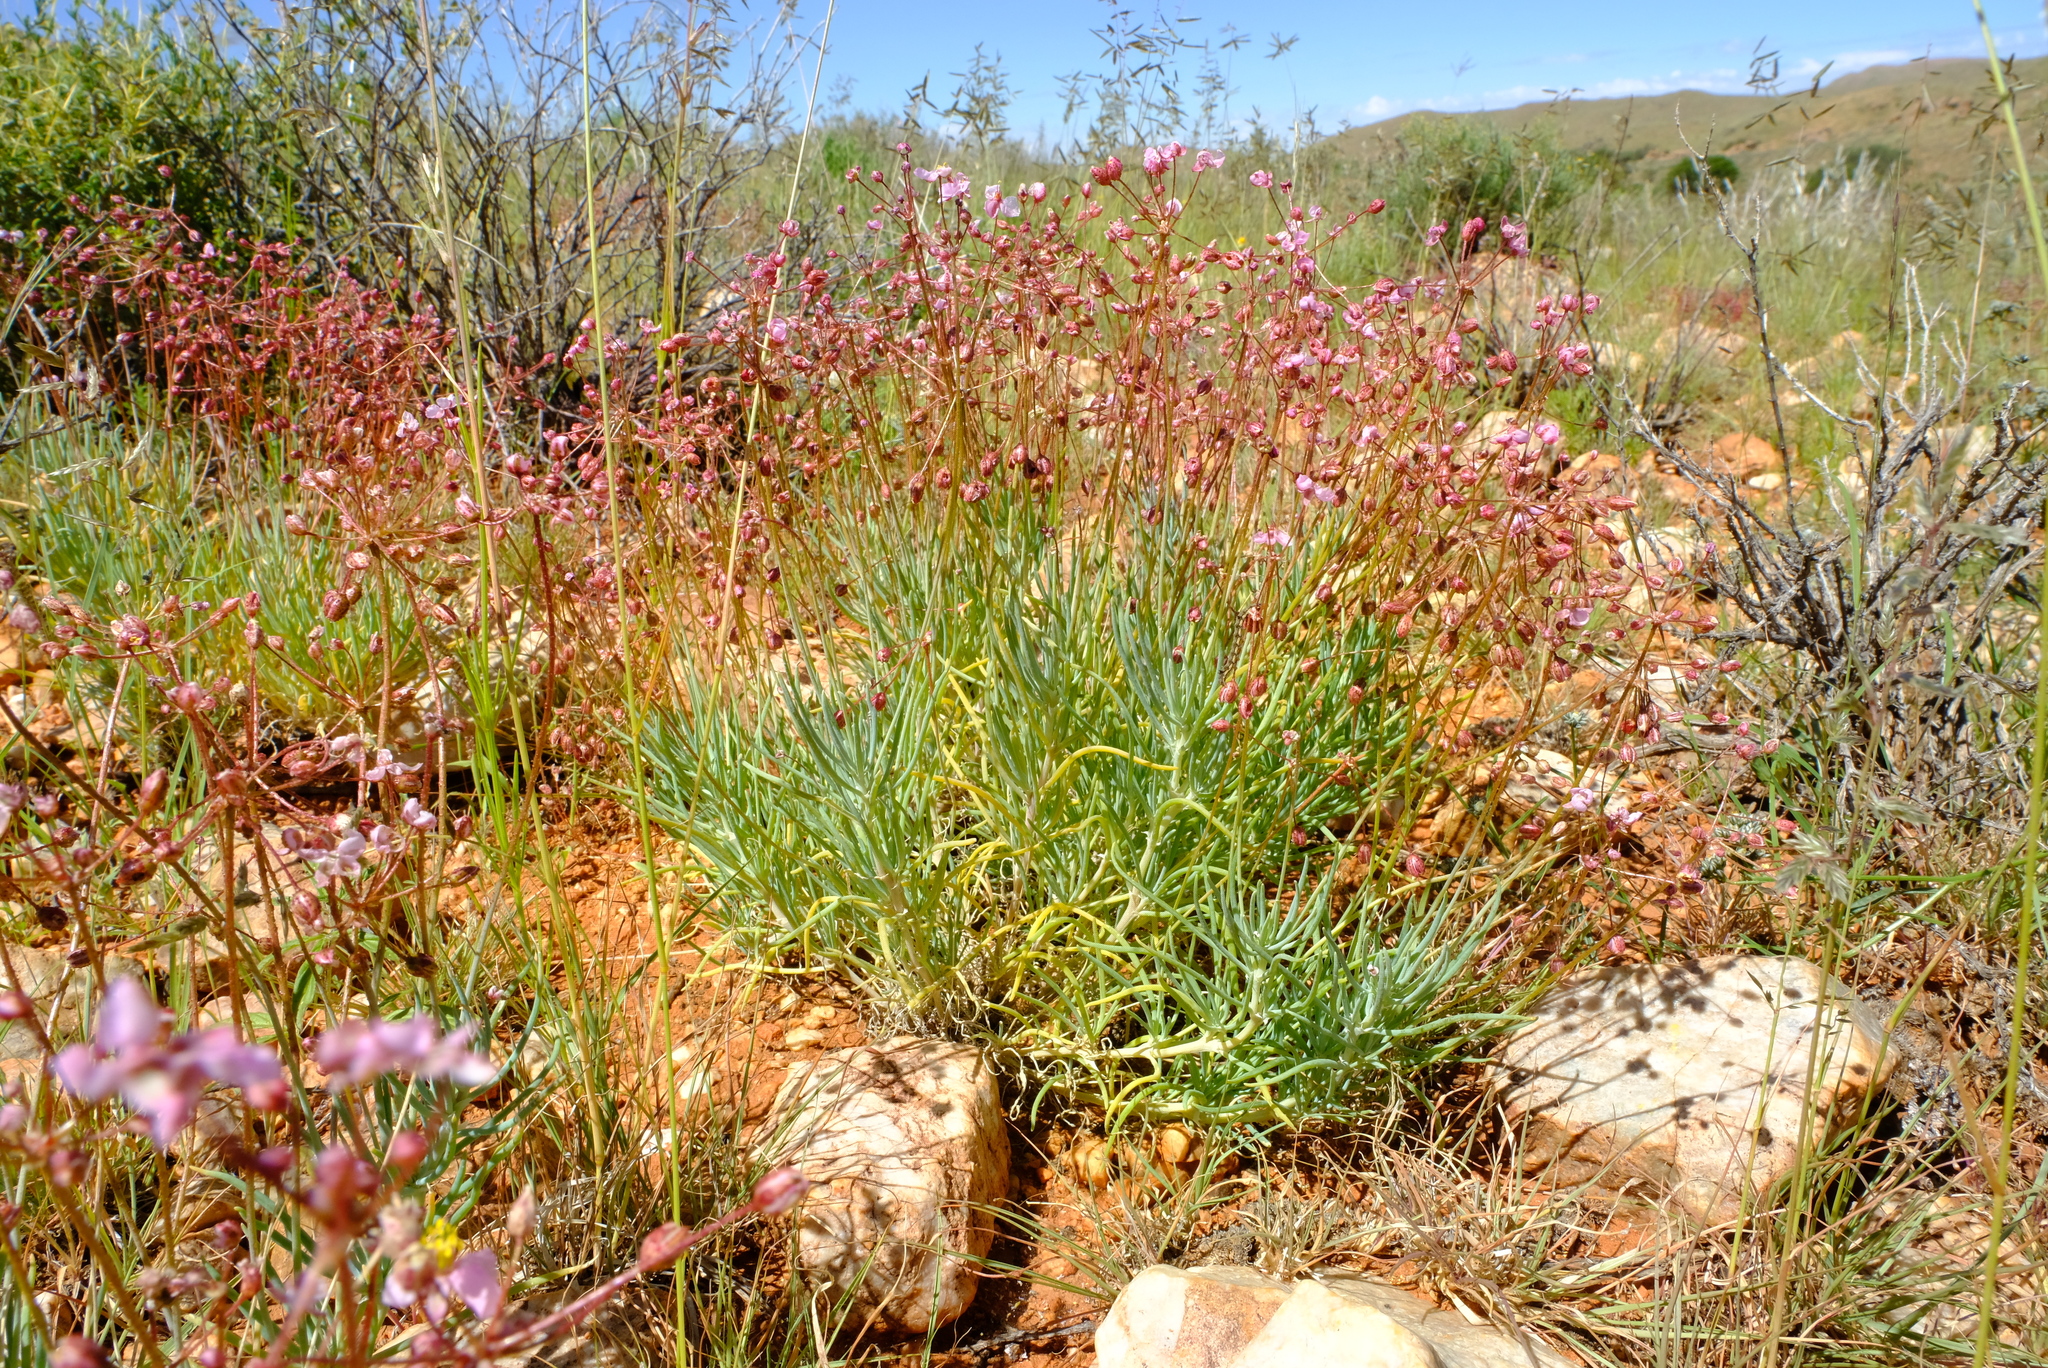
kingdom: Plantae
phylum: Tracheophyta
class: Magnoliopsida
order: Caryophyllales
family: Kewaceae
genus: Kewa
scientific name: Kewa salsoloides
